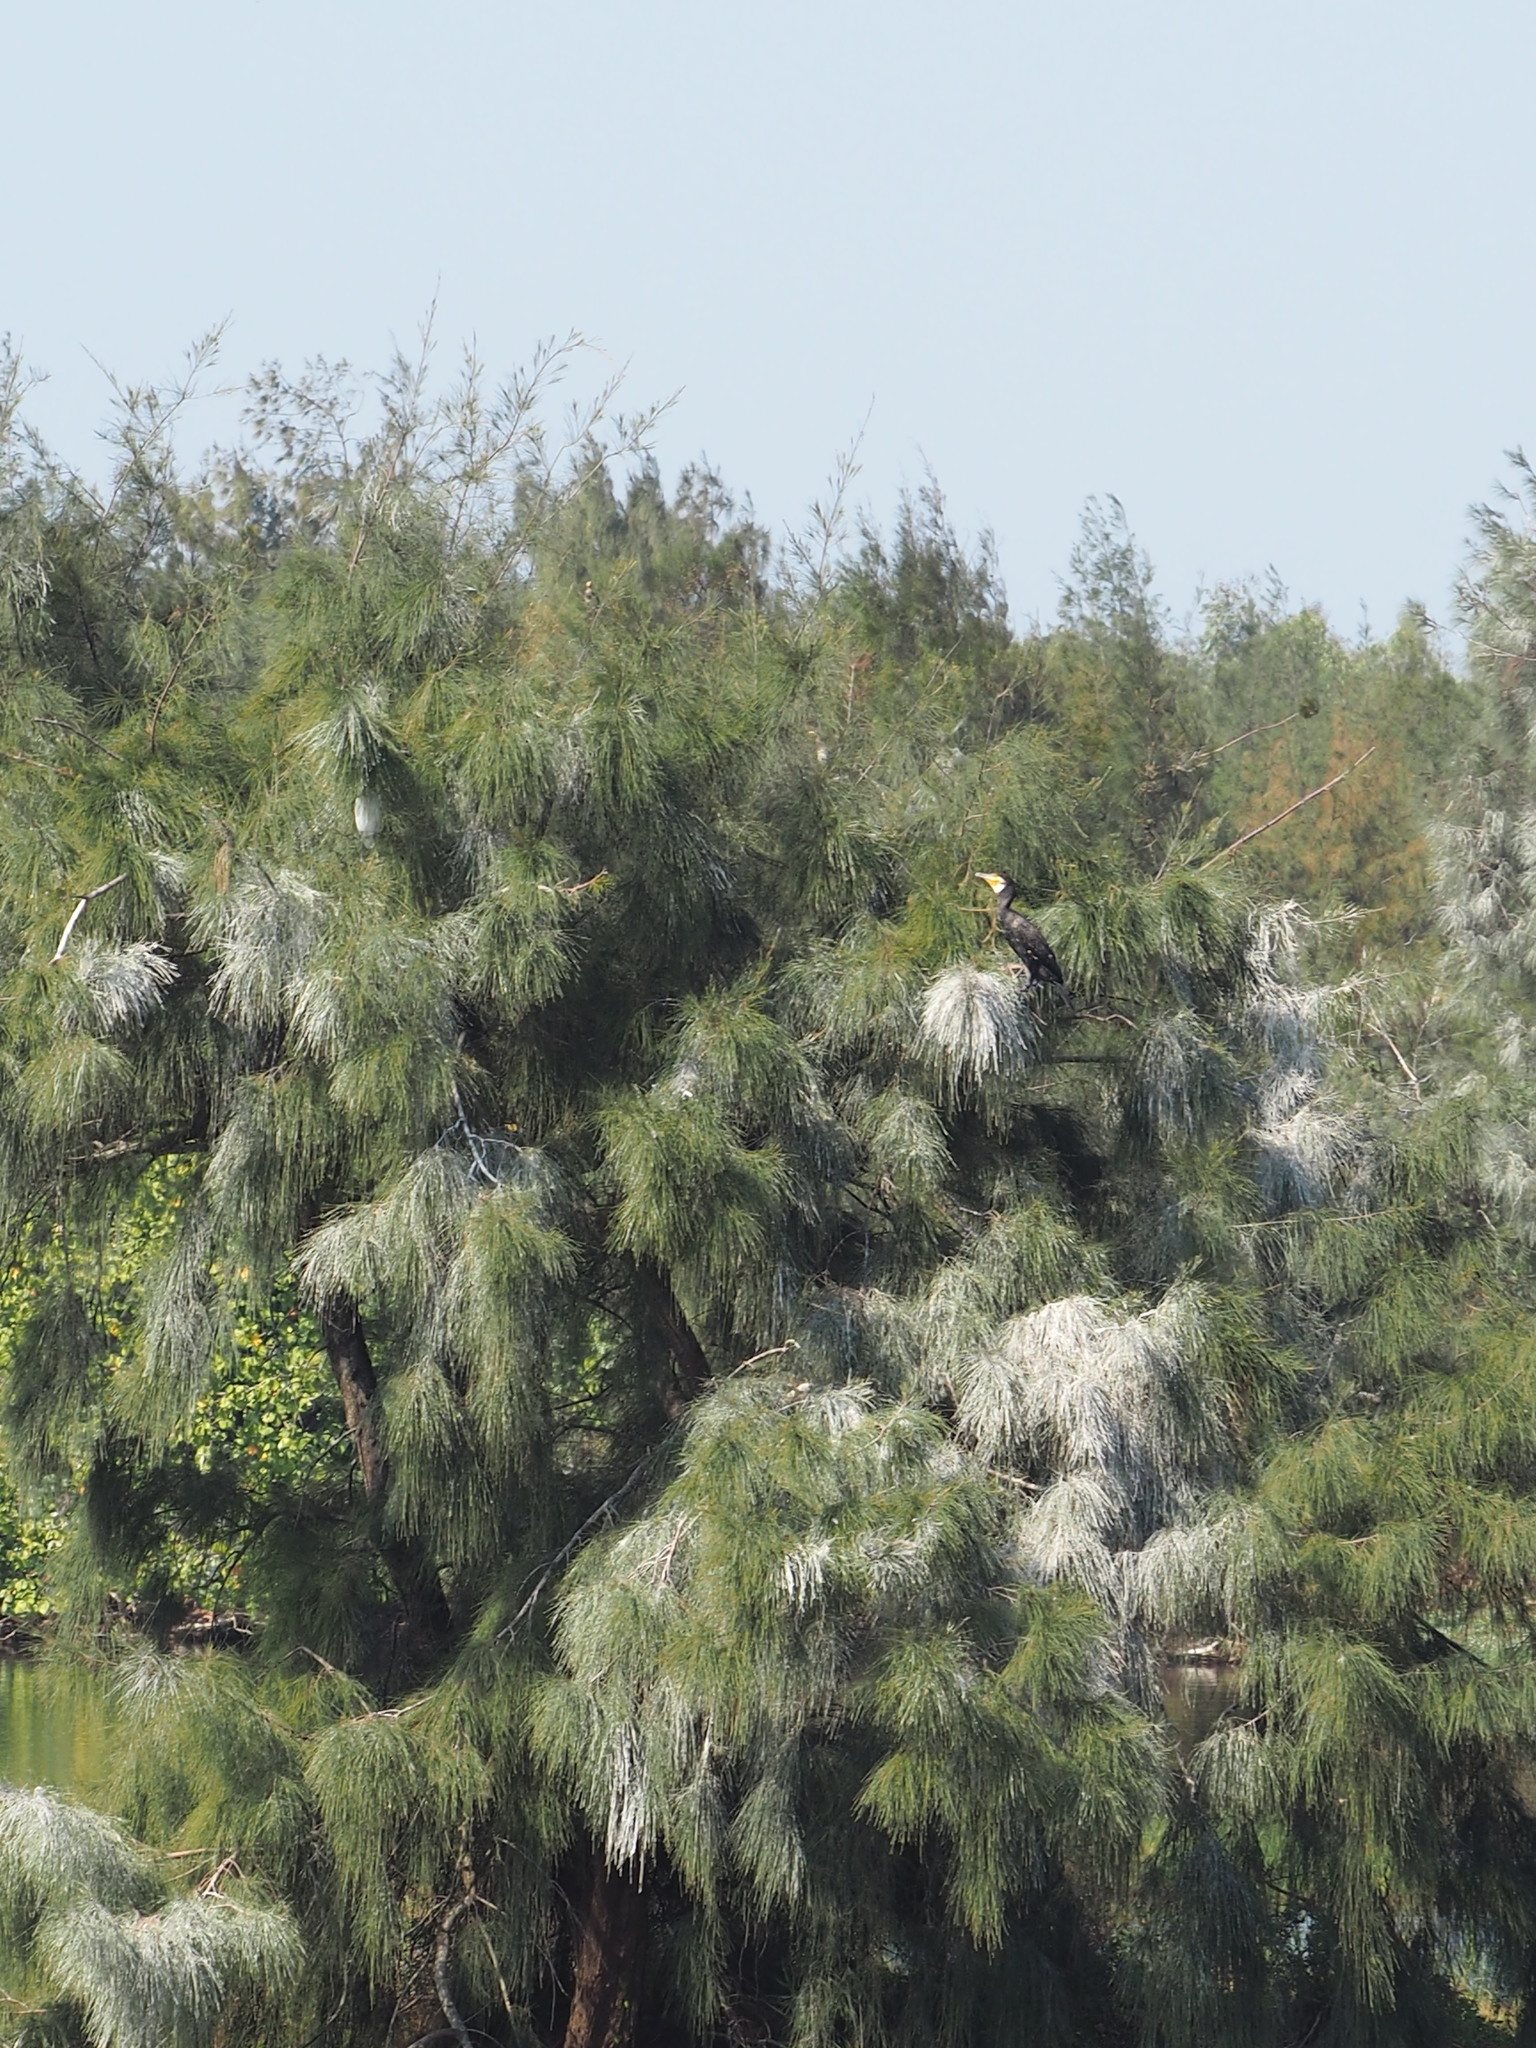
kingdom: Animalia
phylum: Chordata
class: Aves
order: Suliformes
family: Phalacrocoracidae
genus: Phalacrocorax
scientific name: Phalacrocorax carbo
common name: Great cormorant
